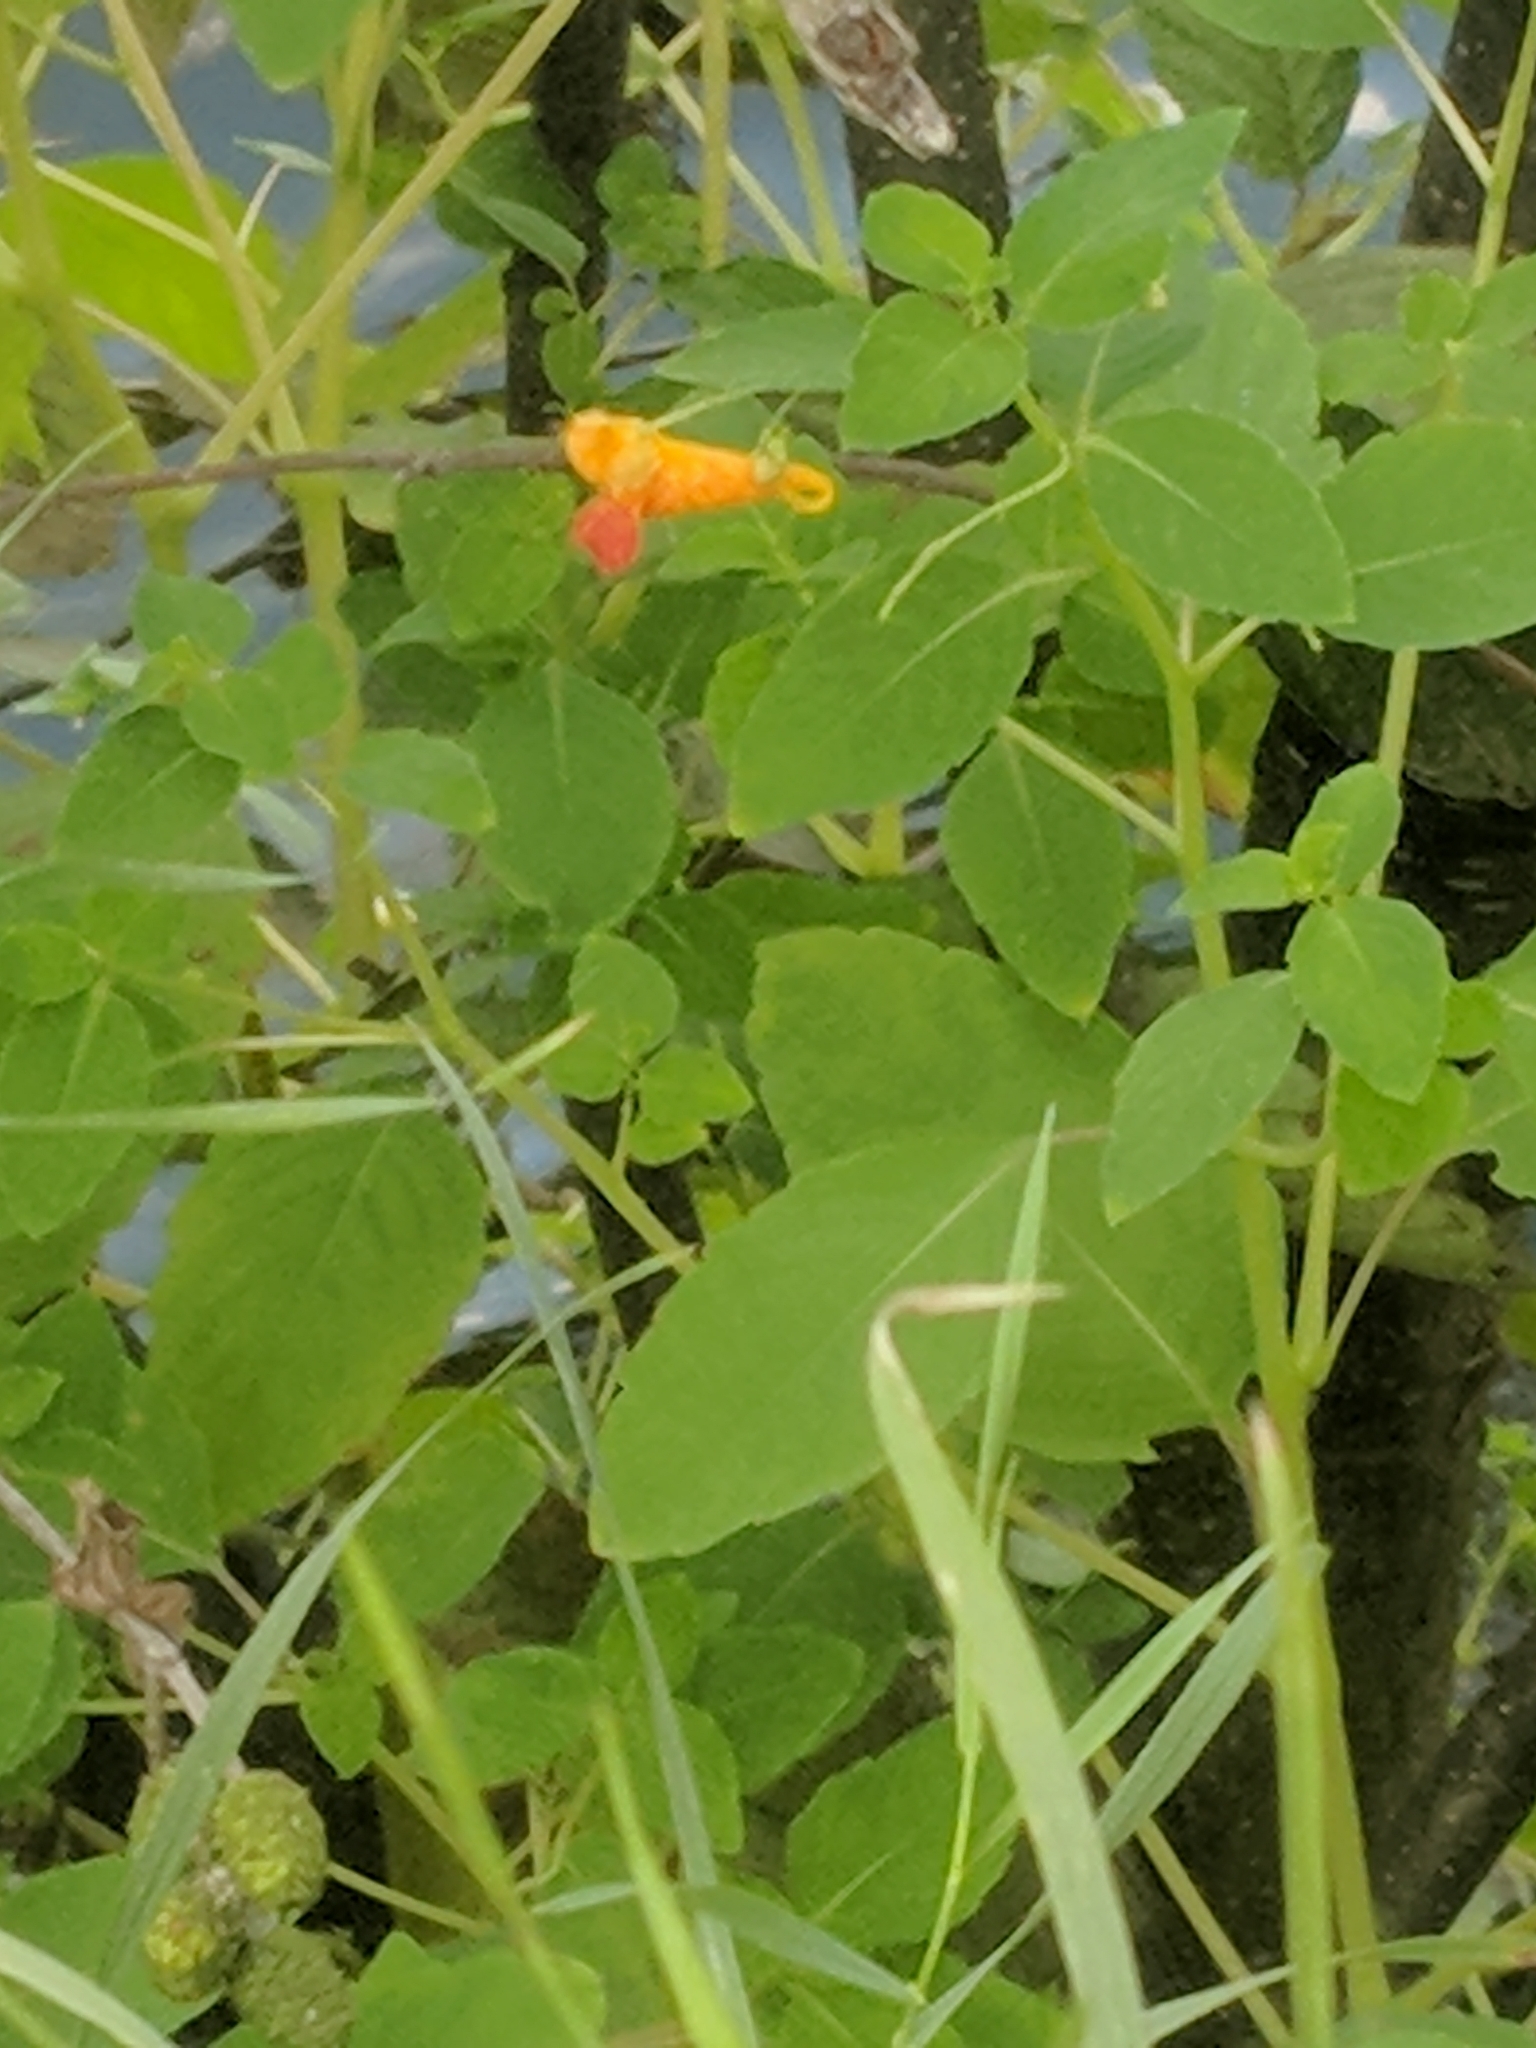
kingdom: Plantae
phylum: Tracheophyta
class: Magnoliopsida
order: Ericales
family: Balsaminaceae
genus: Impatiens
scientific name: Impatiens capensis
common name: Orange balsam
